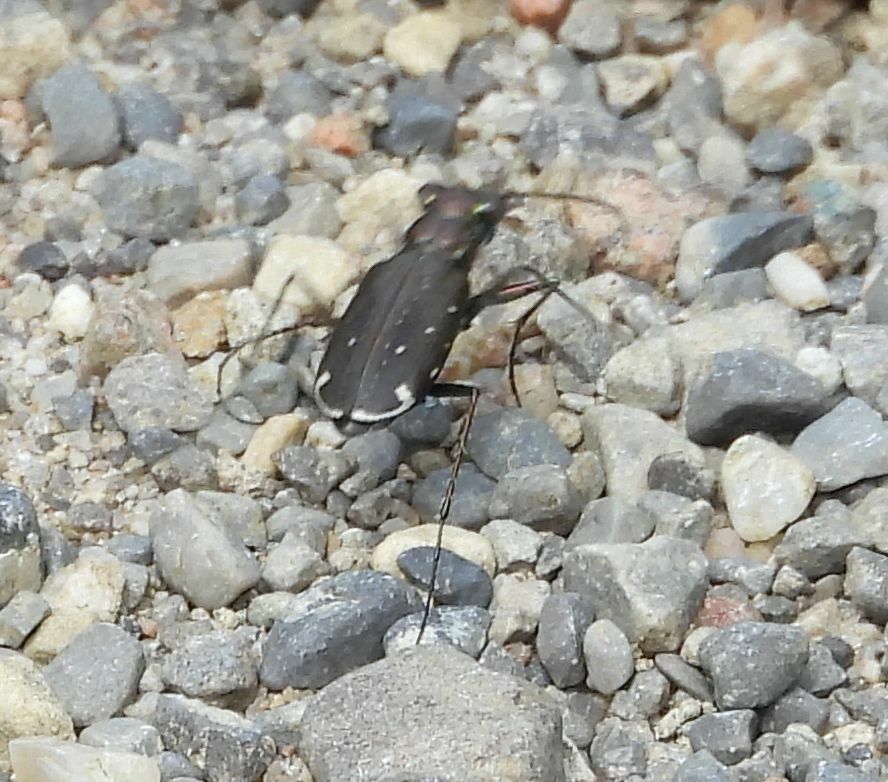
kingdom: Animalia
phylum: Arthropoda
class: Insecta
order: Coleoptera
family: Carabidae
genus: Cicindela
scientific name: Cicindela punctulata
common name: Punctured tiger beetle
